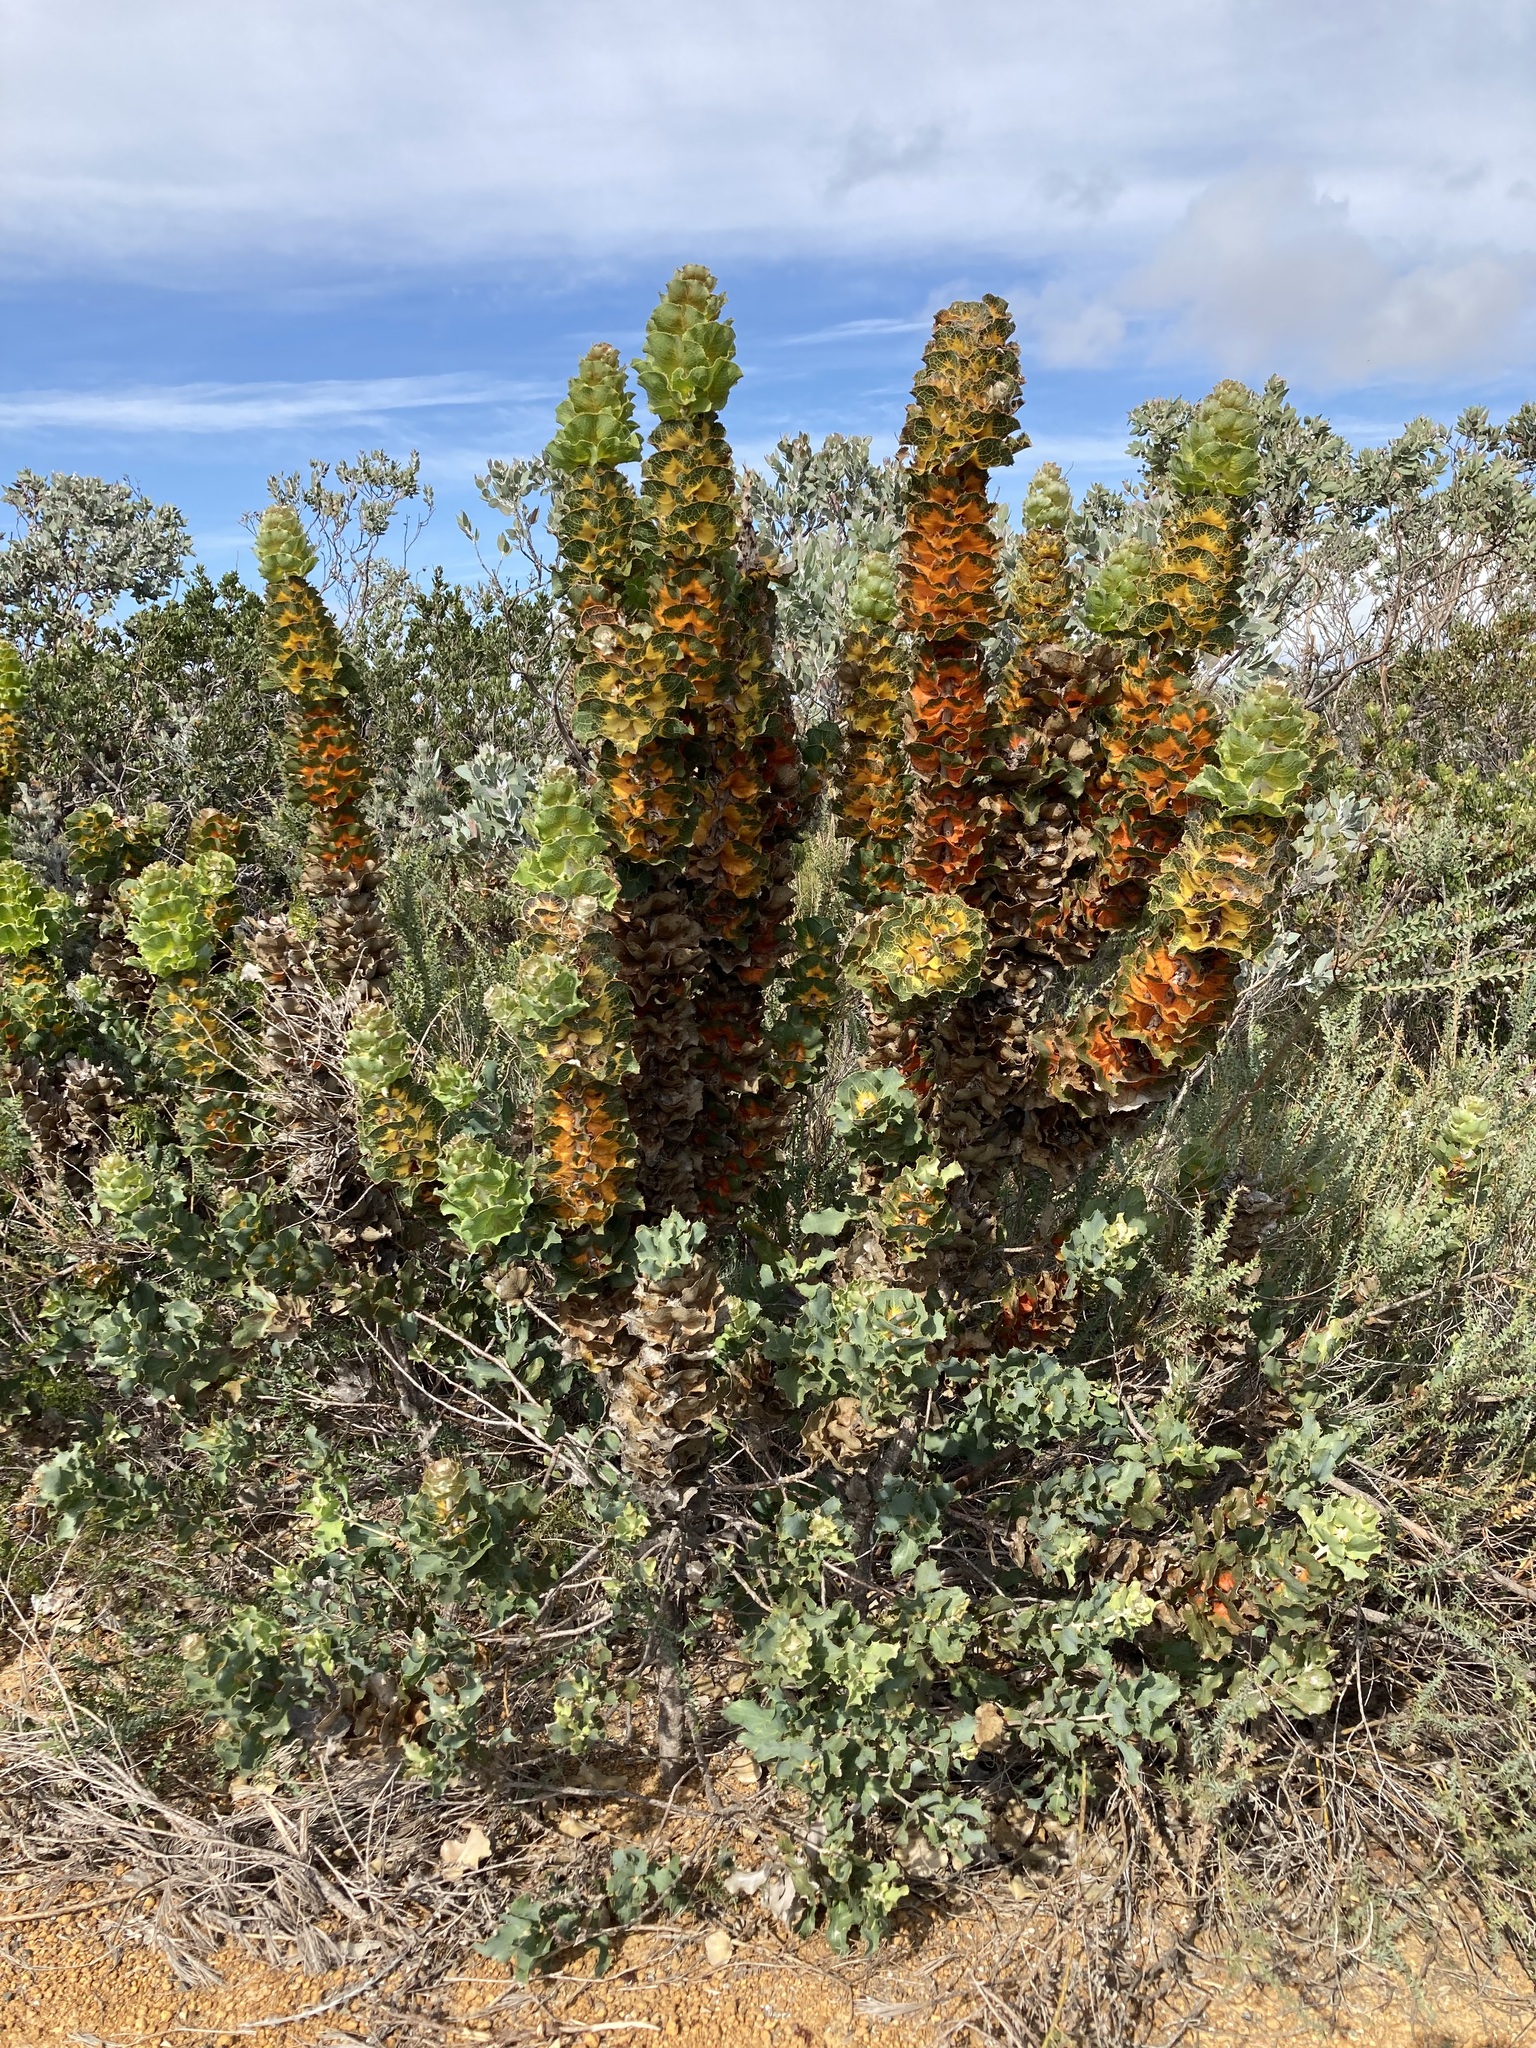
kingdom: Plantae
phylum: Tracheophyta
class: Magnoliopsida
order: Proteales
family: Proteaceae
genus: Hakea
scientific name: Hakea victoria
